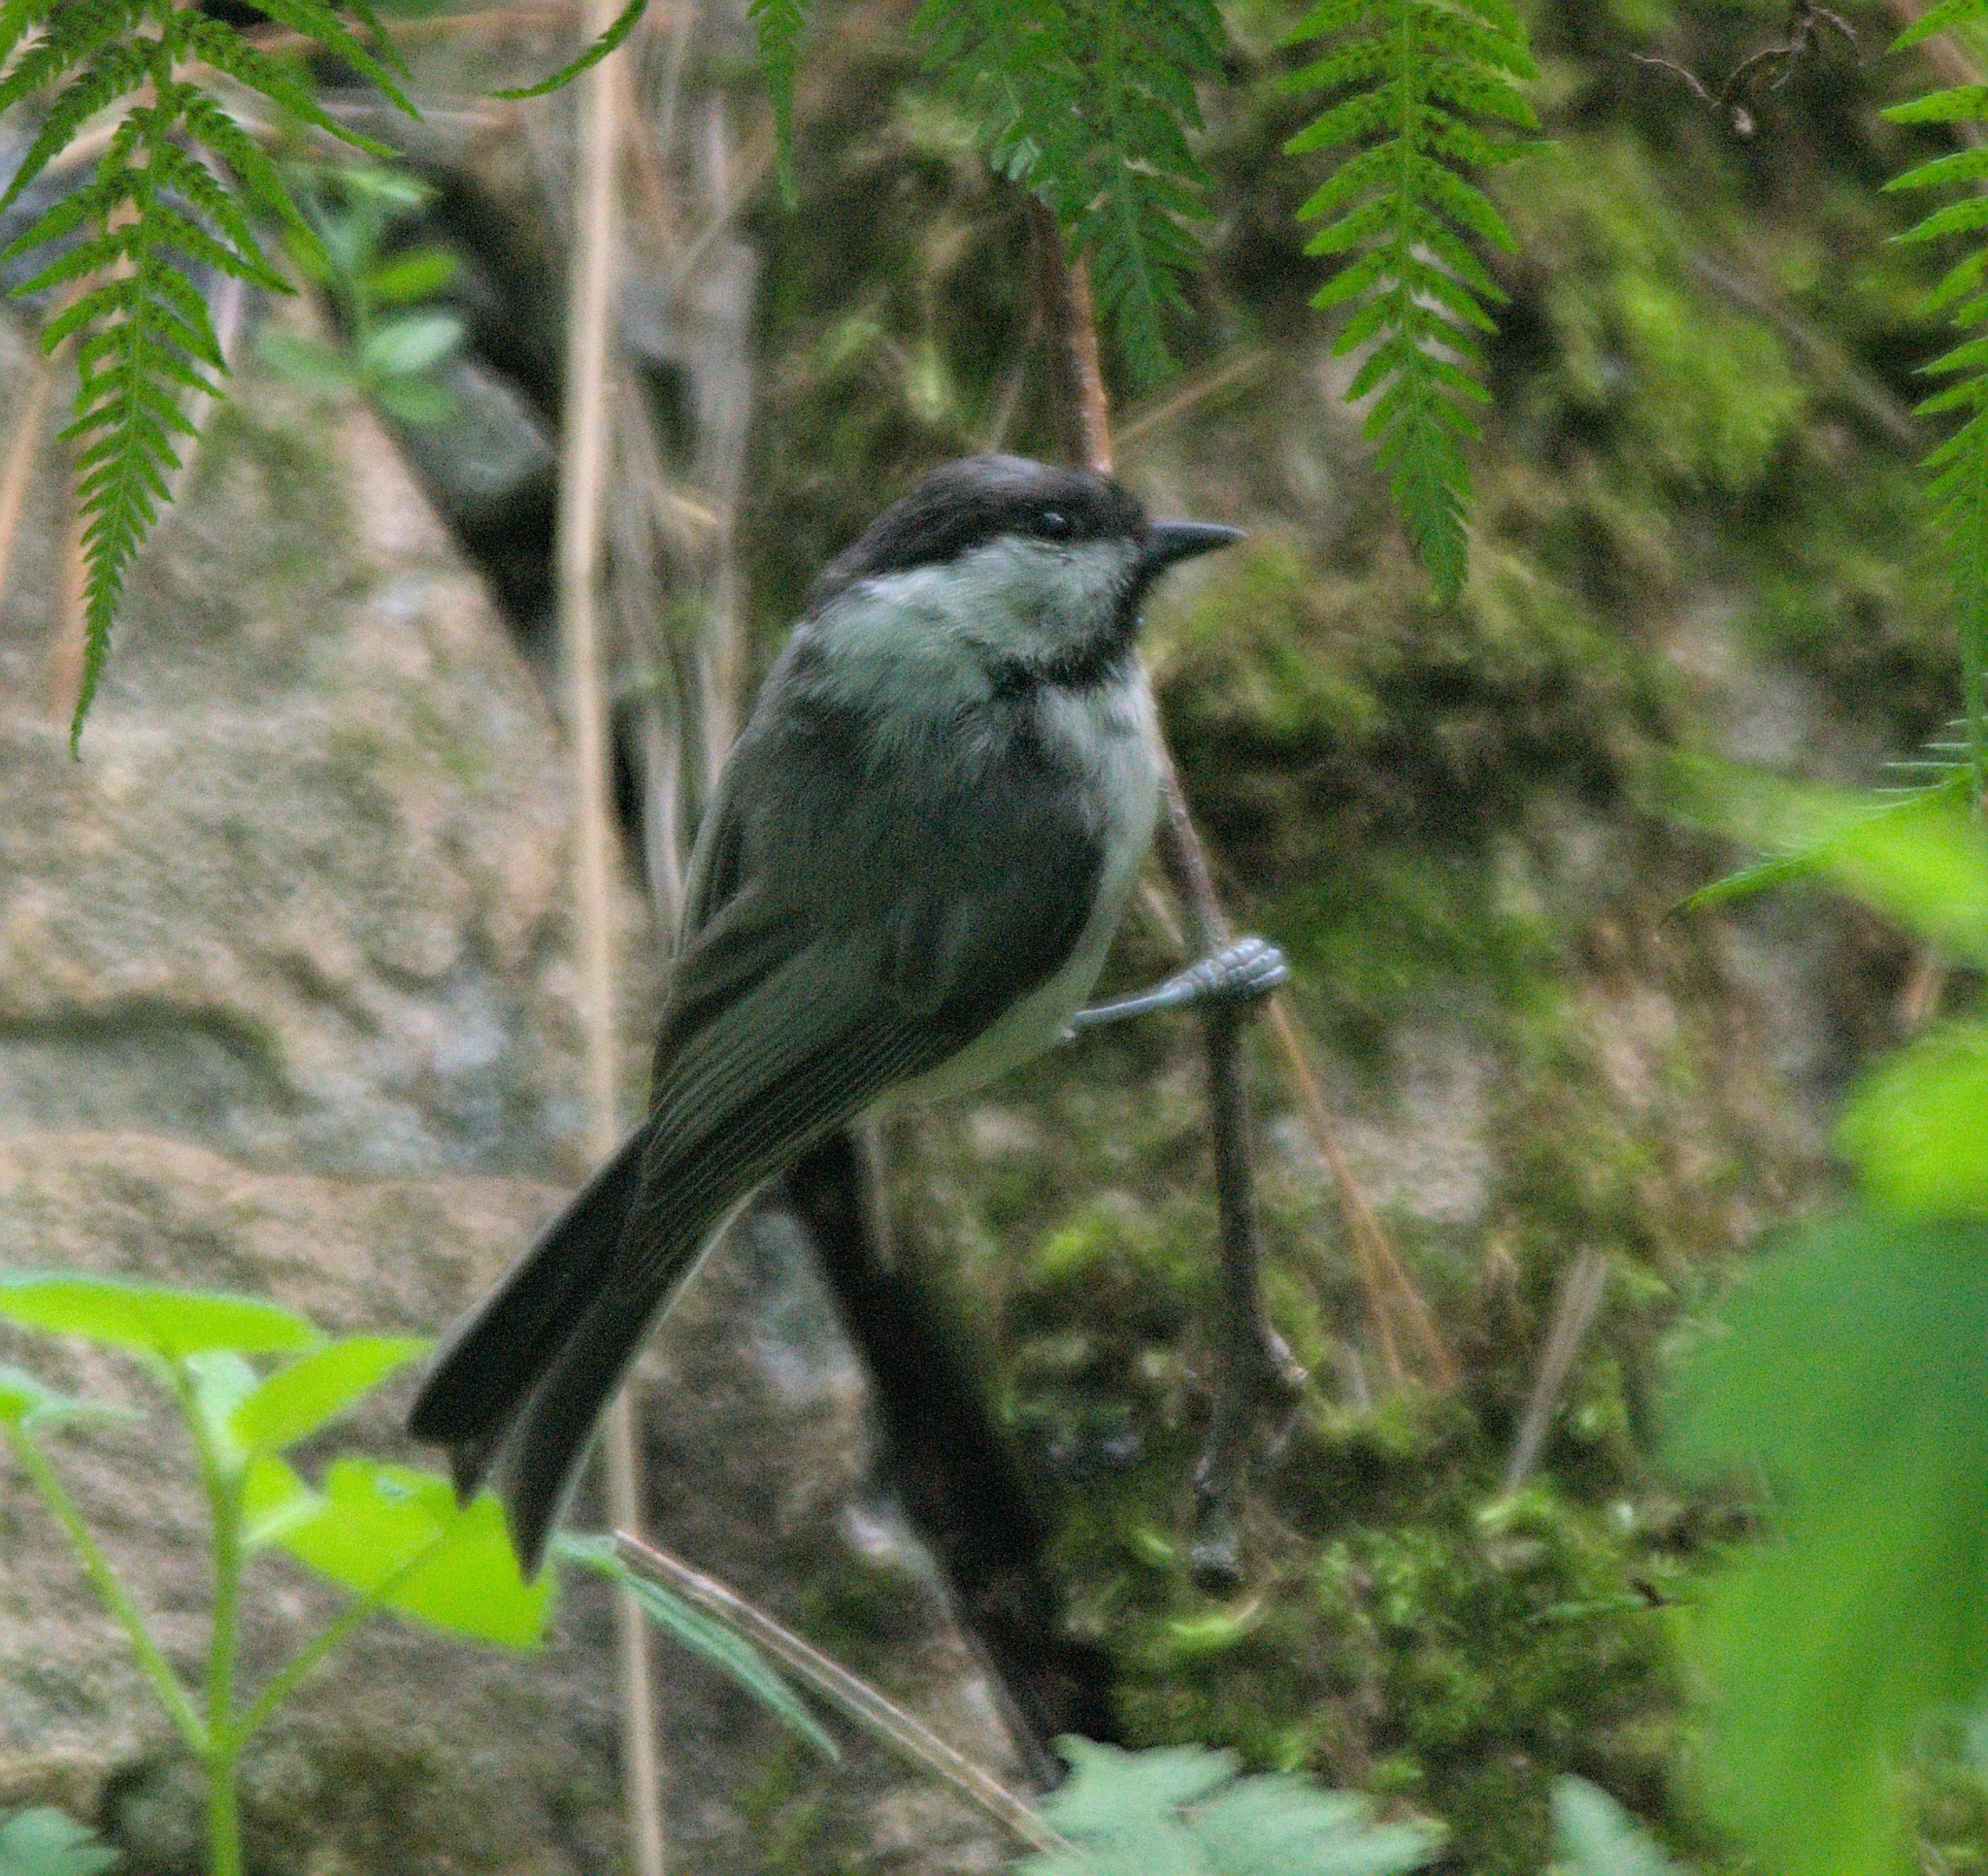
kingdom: Animalia
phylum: Chordata
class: Aves
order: Passeriformes
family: Paridae
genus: Poecile
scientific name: Poecile montanus
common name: Willow tit
